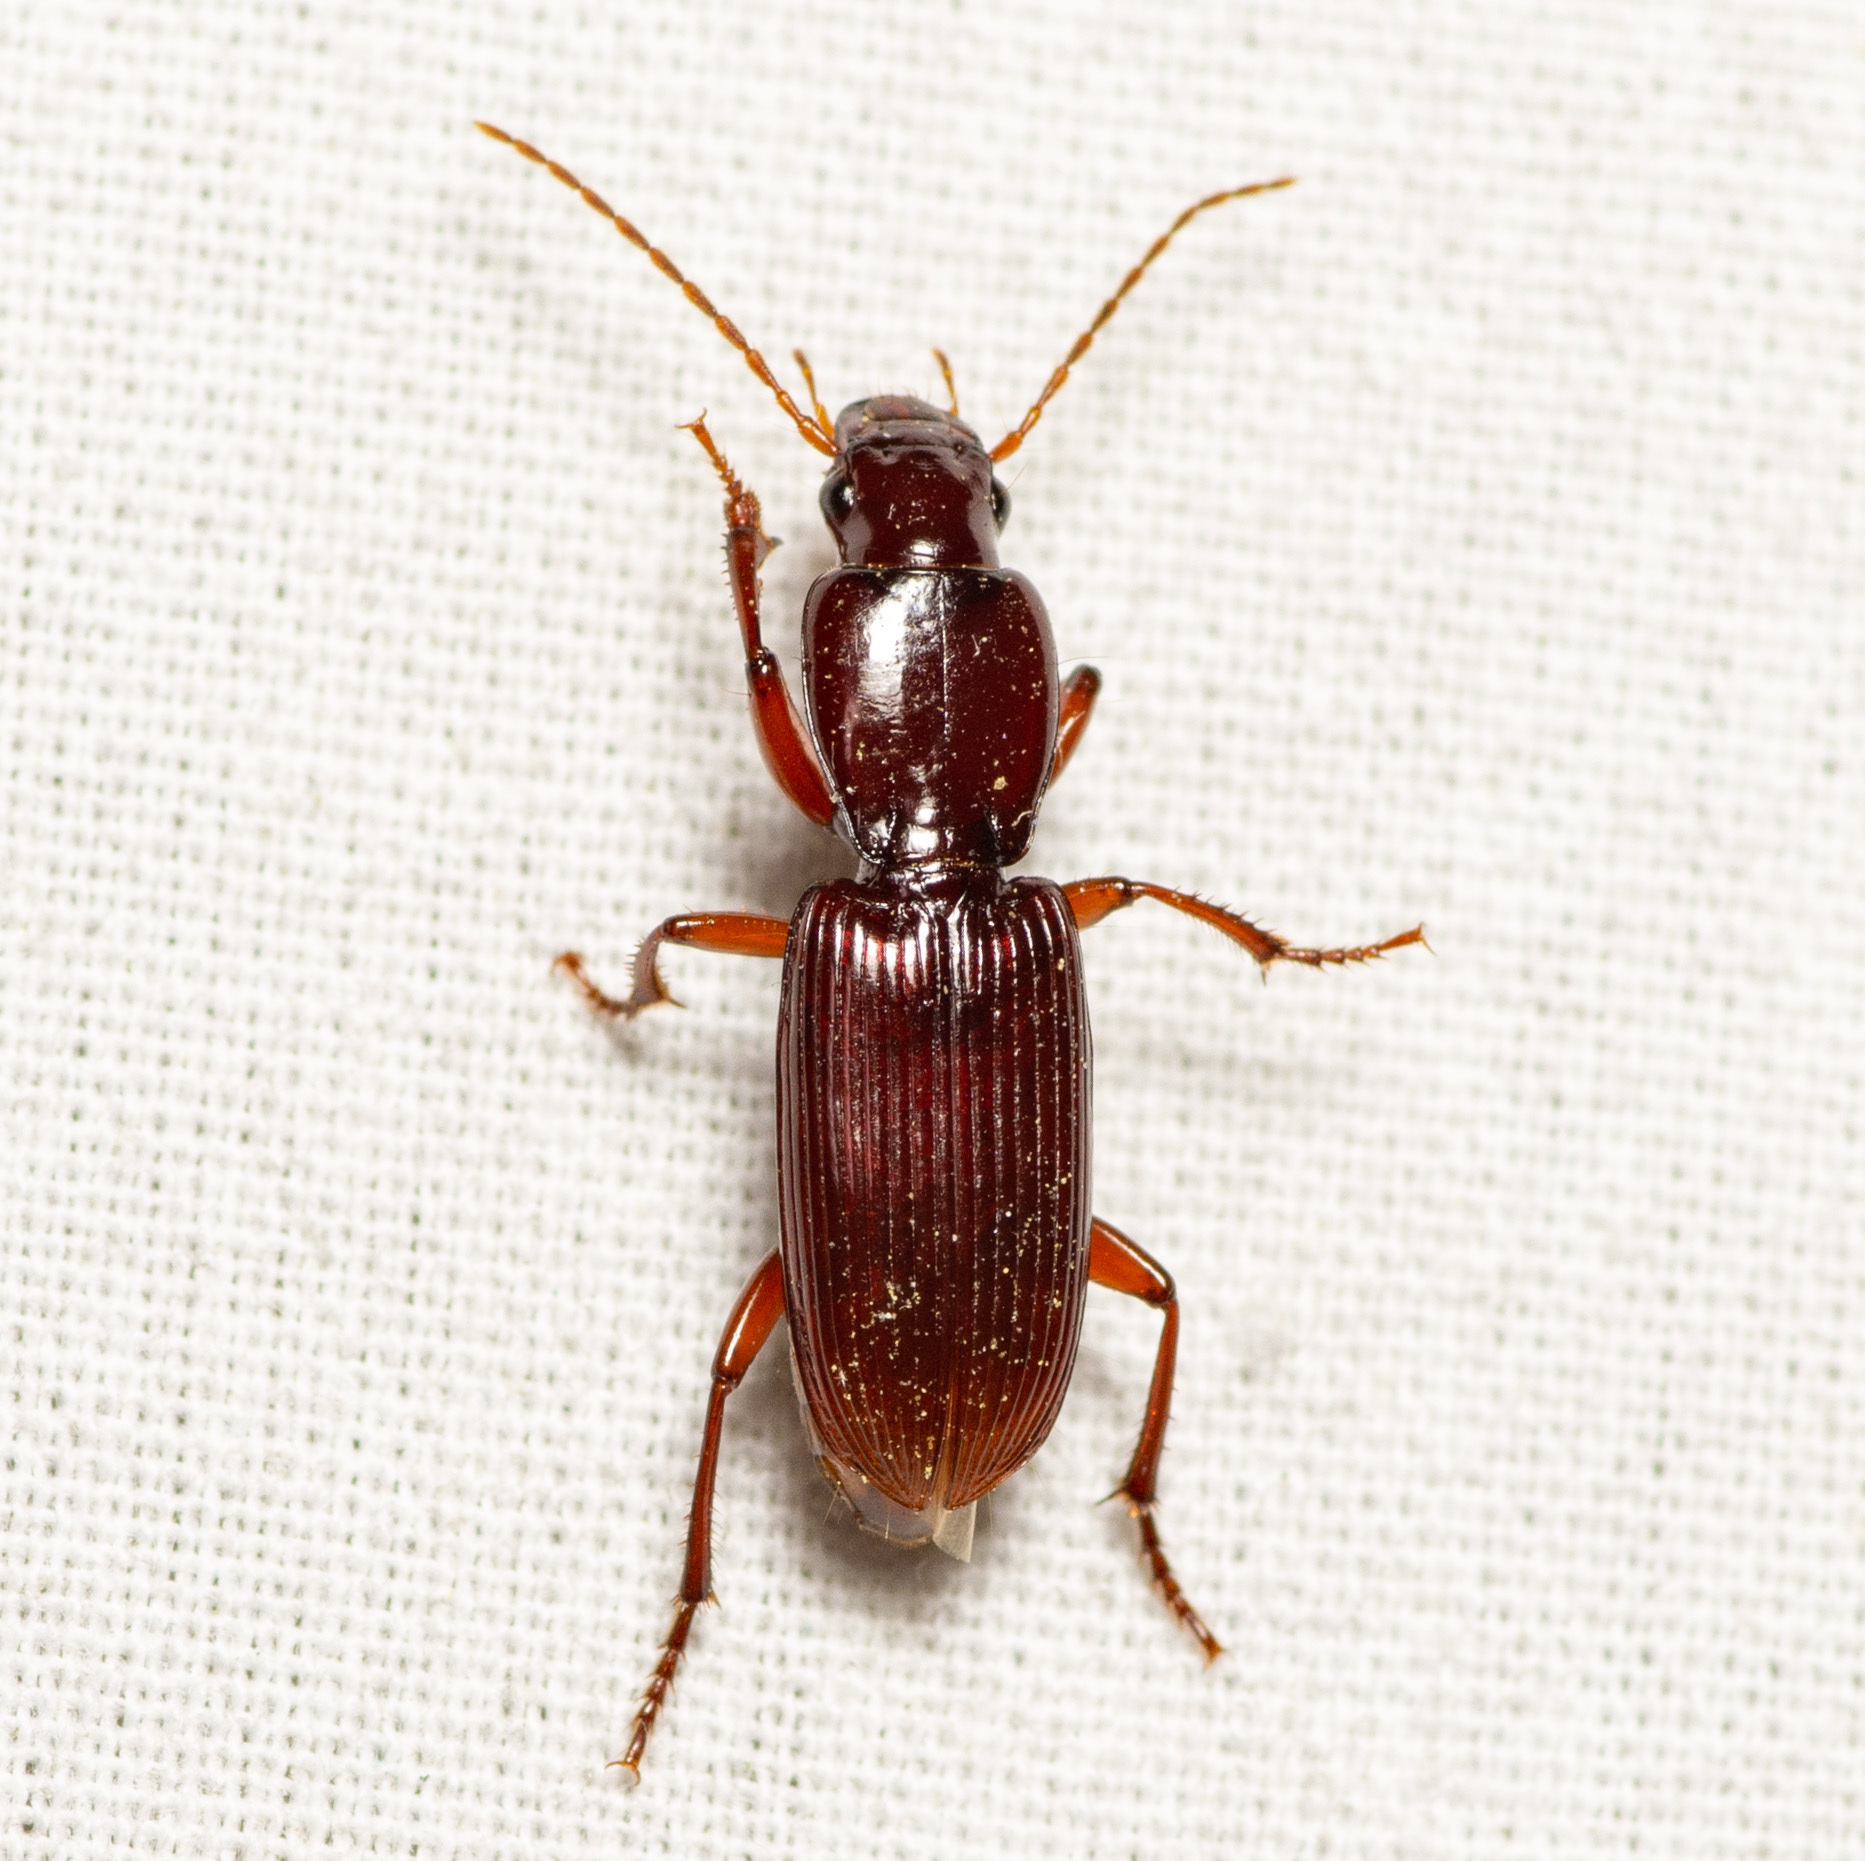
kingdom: Animalia
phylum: Arthropoda
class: Insecta
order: Coleoptera
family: Carabidae
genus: Stenomorphus
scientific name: Stenomorphus californicus
